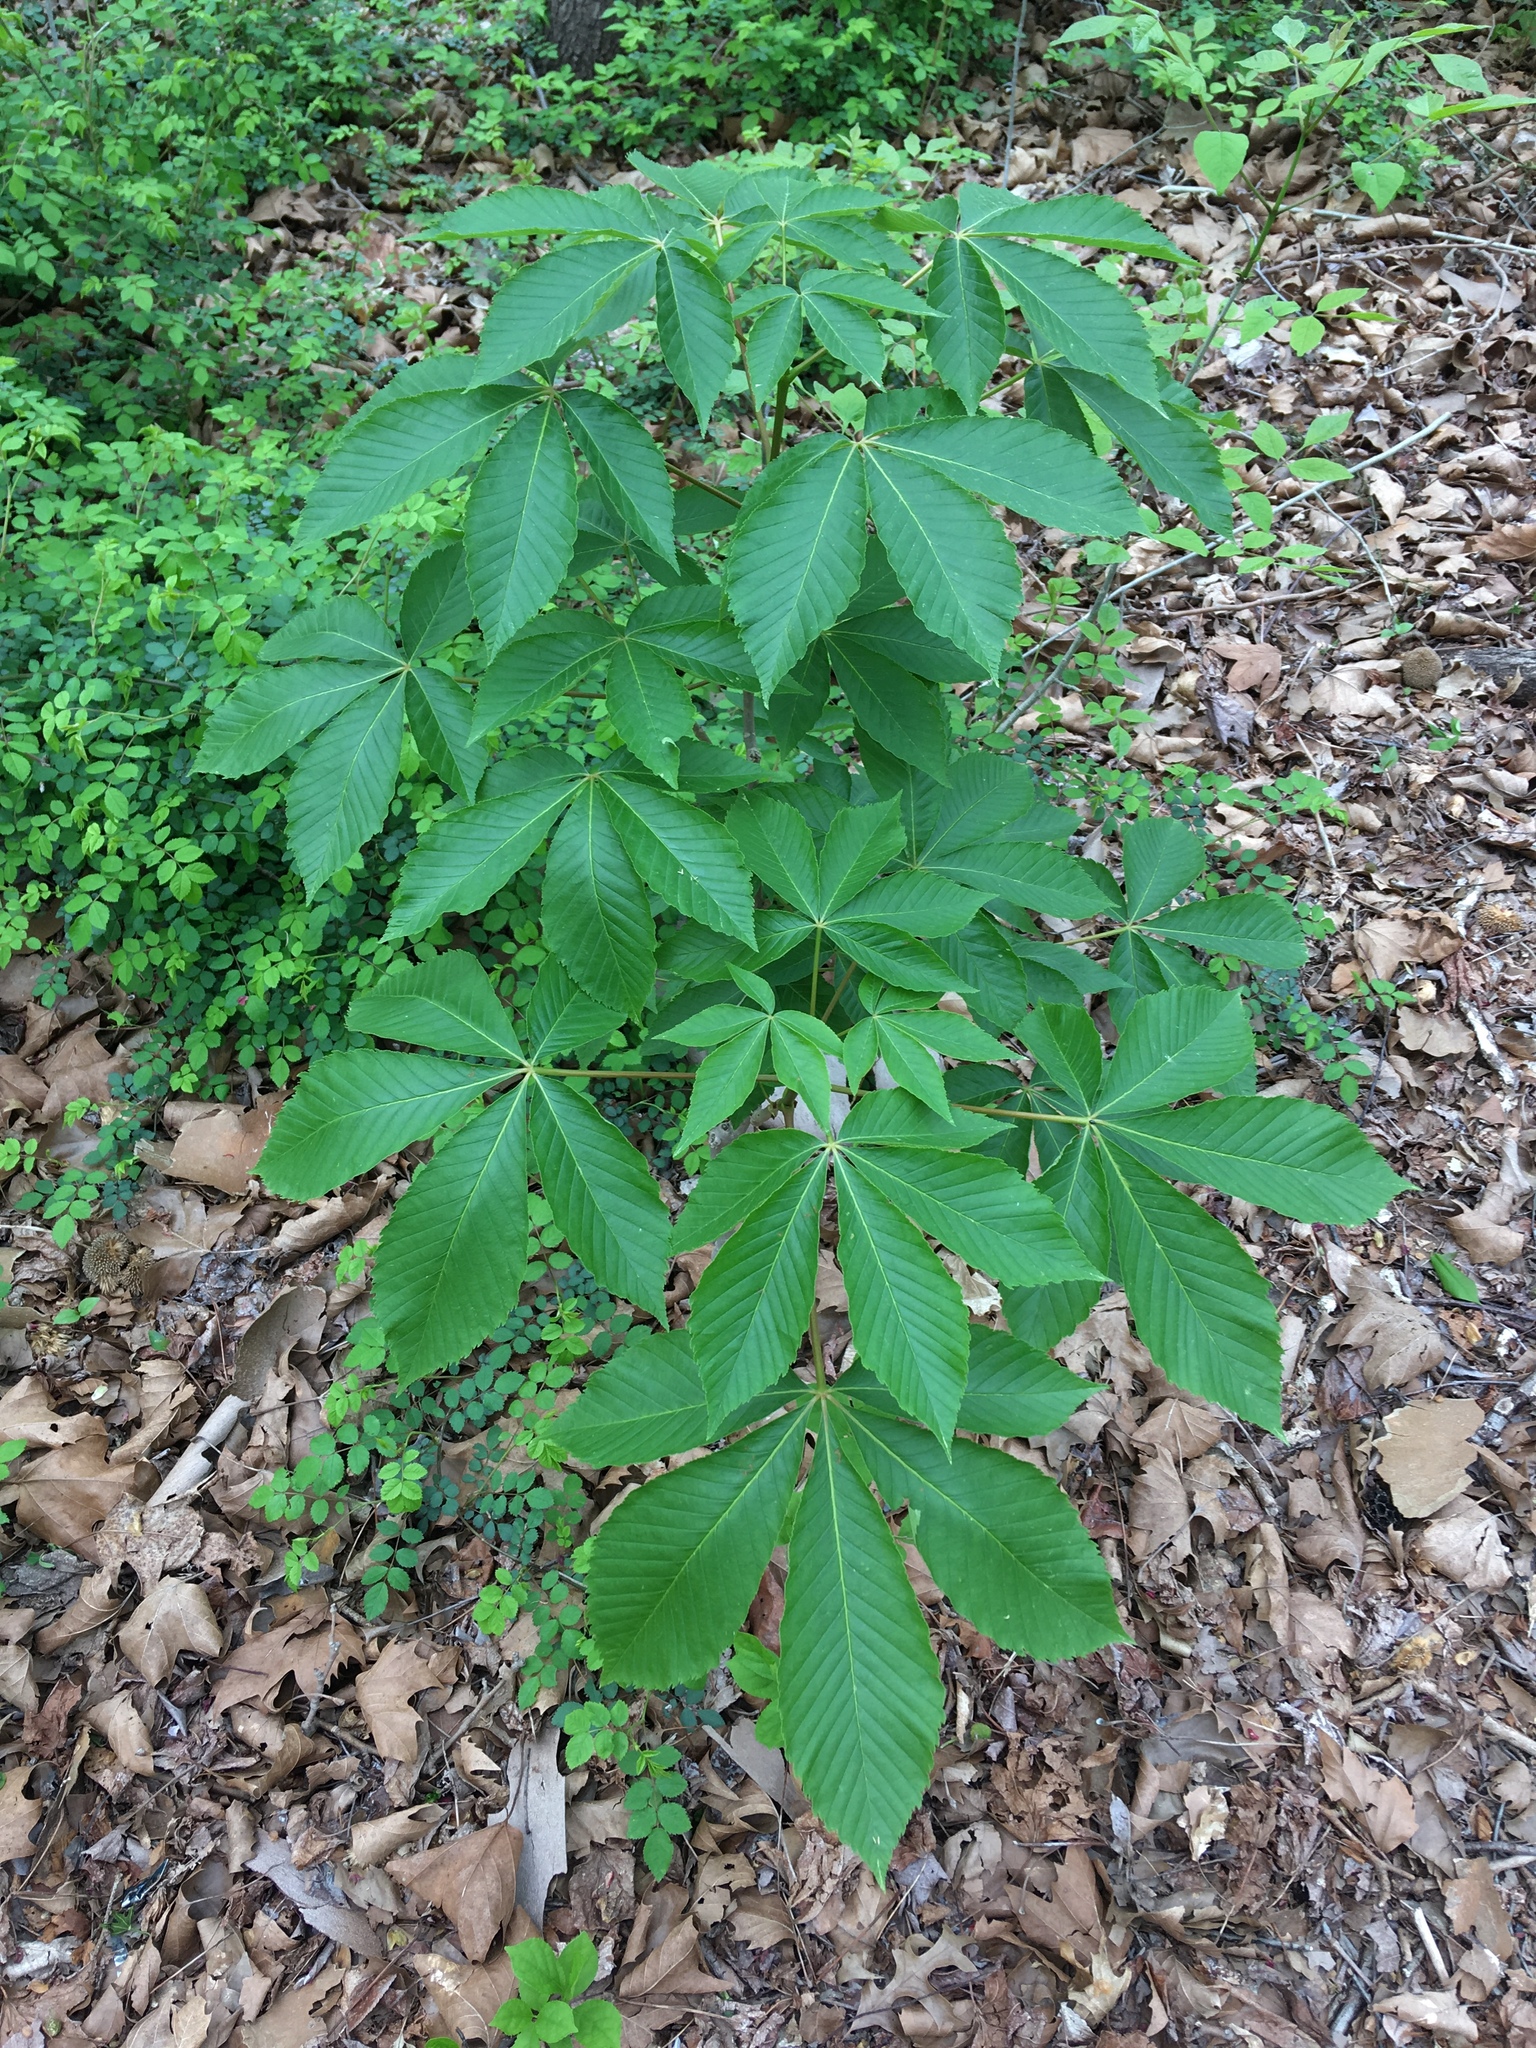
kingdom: Plantae
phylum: Tracheophyta
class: Magnoliopsida
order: Sapindales
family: Sapindaceae
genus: Aesculus
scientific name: Aesculus glabra
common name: Ohio buckeye
